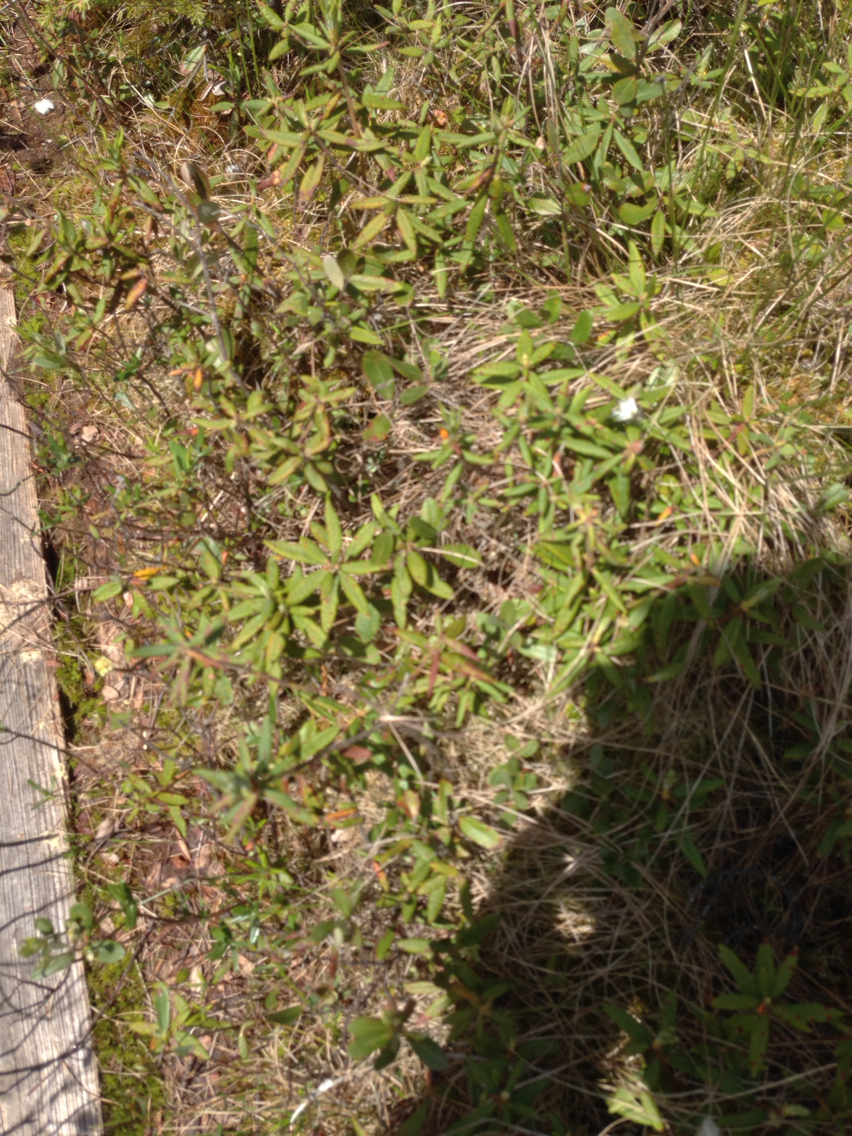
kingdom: Plantae
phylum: Tracheophyta
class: Magnoliopsida
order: Ericales
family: Ericaceae
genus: Rhododendron
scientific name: Rhododendron groenlandicum
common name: Bog labrador tea
